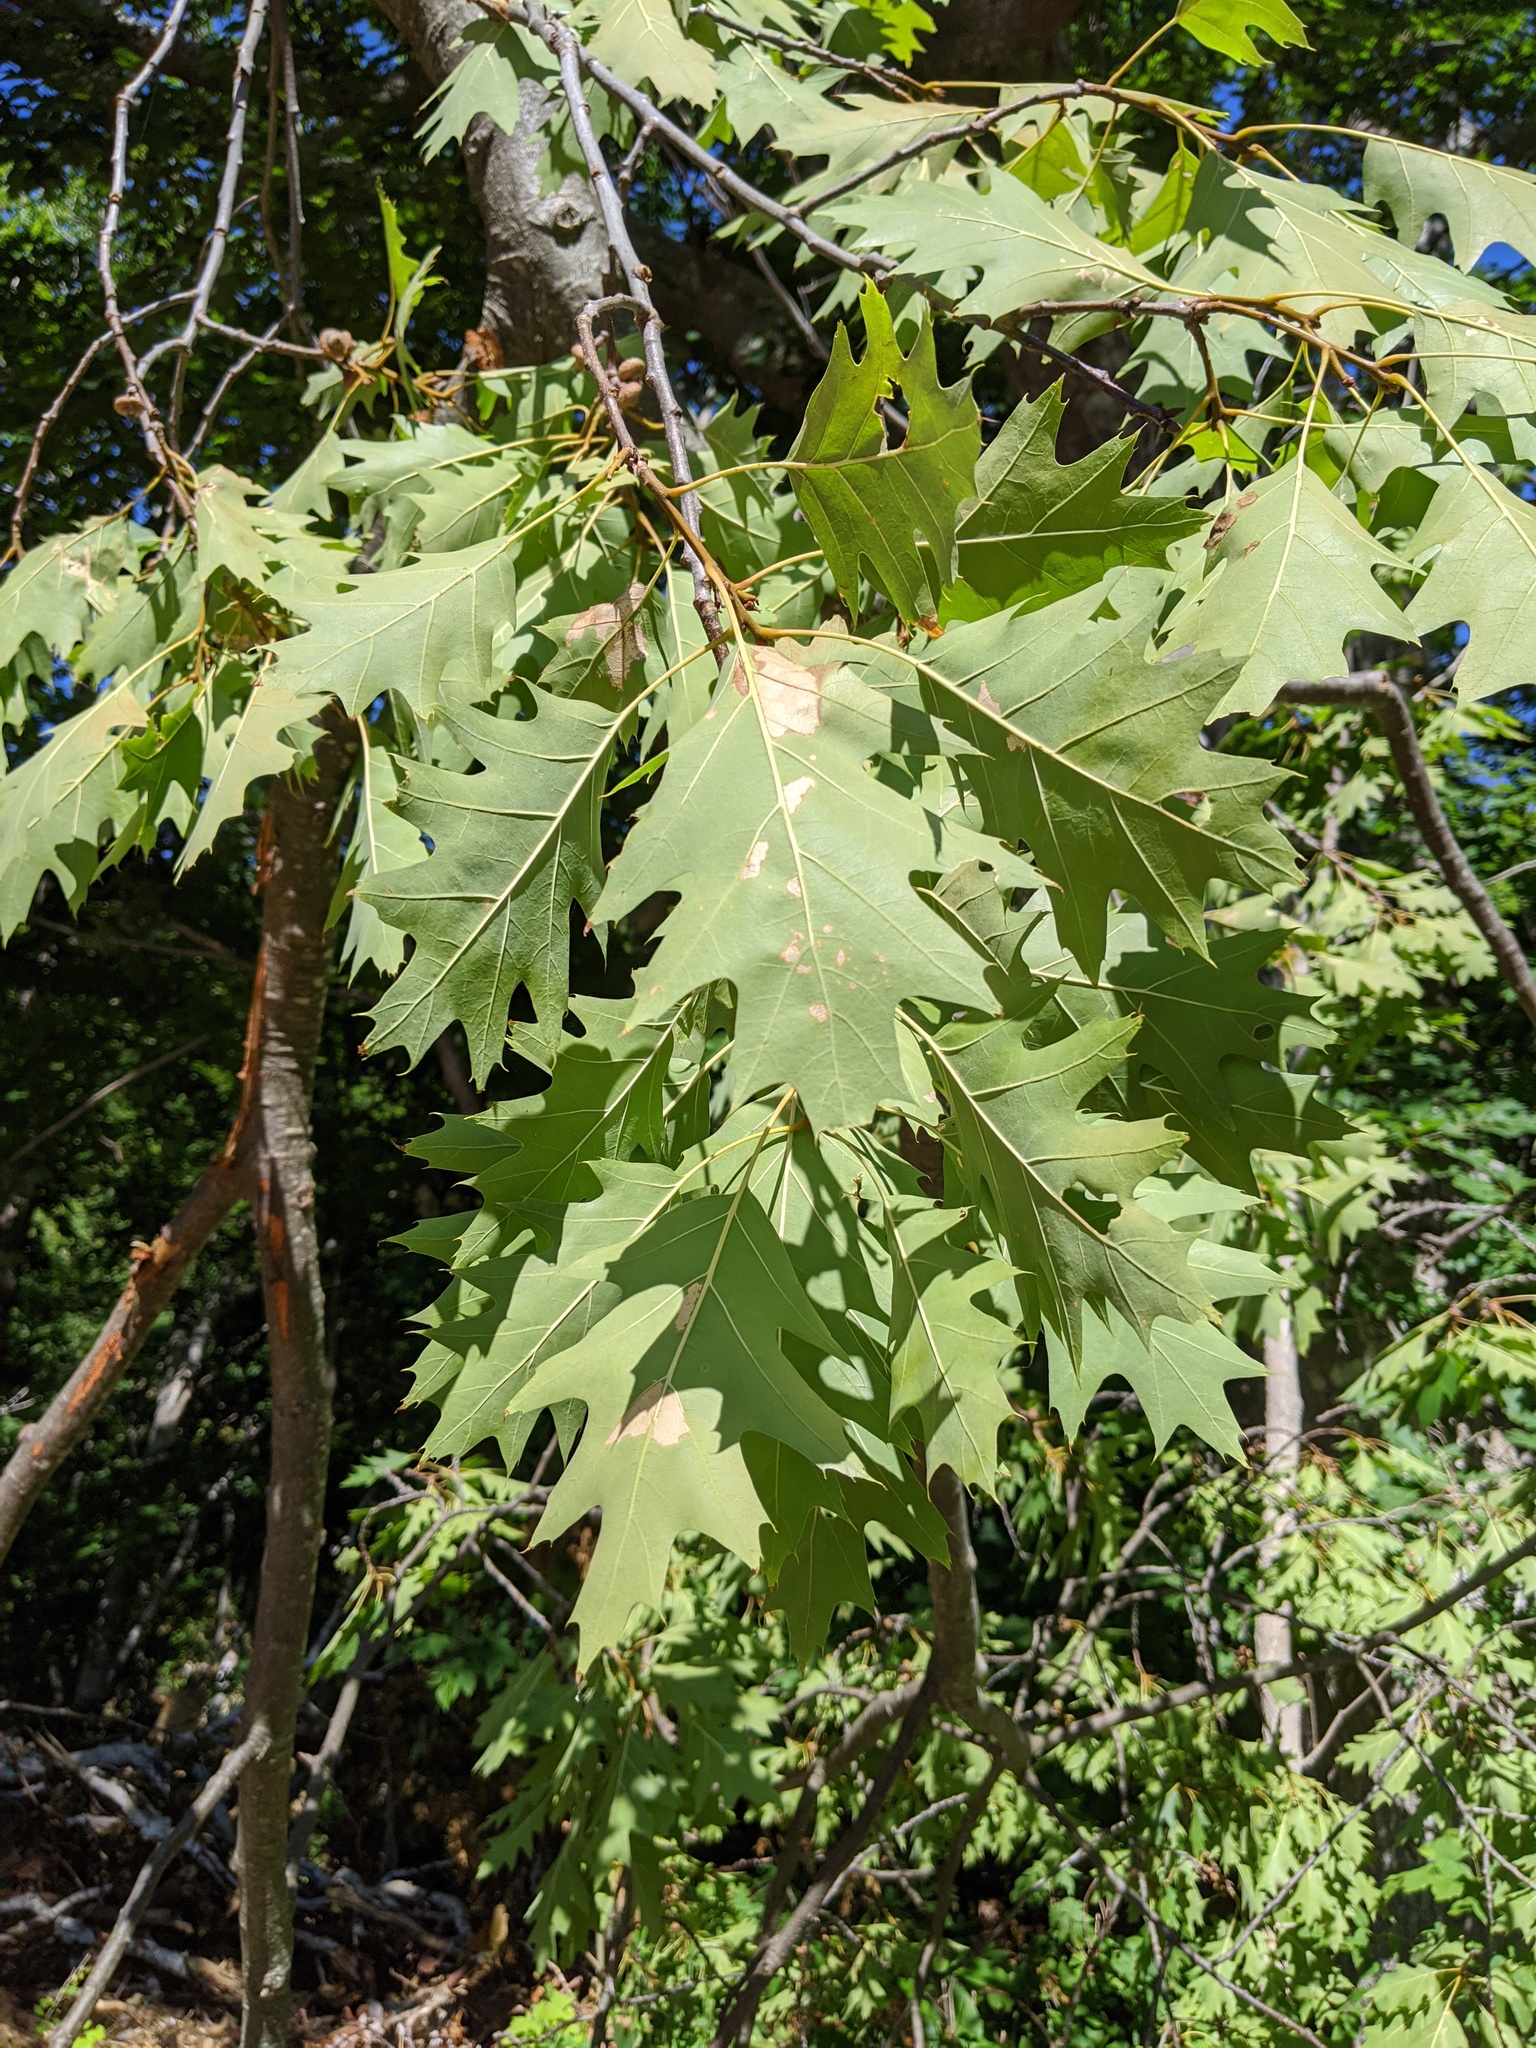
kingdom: Plantae
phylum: Tracheophyta
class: Magnoliopsida
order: Fagales
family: Fagaceae
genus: Quercus
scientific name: Quercus rubra
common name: Red oak
